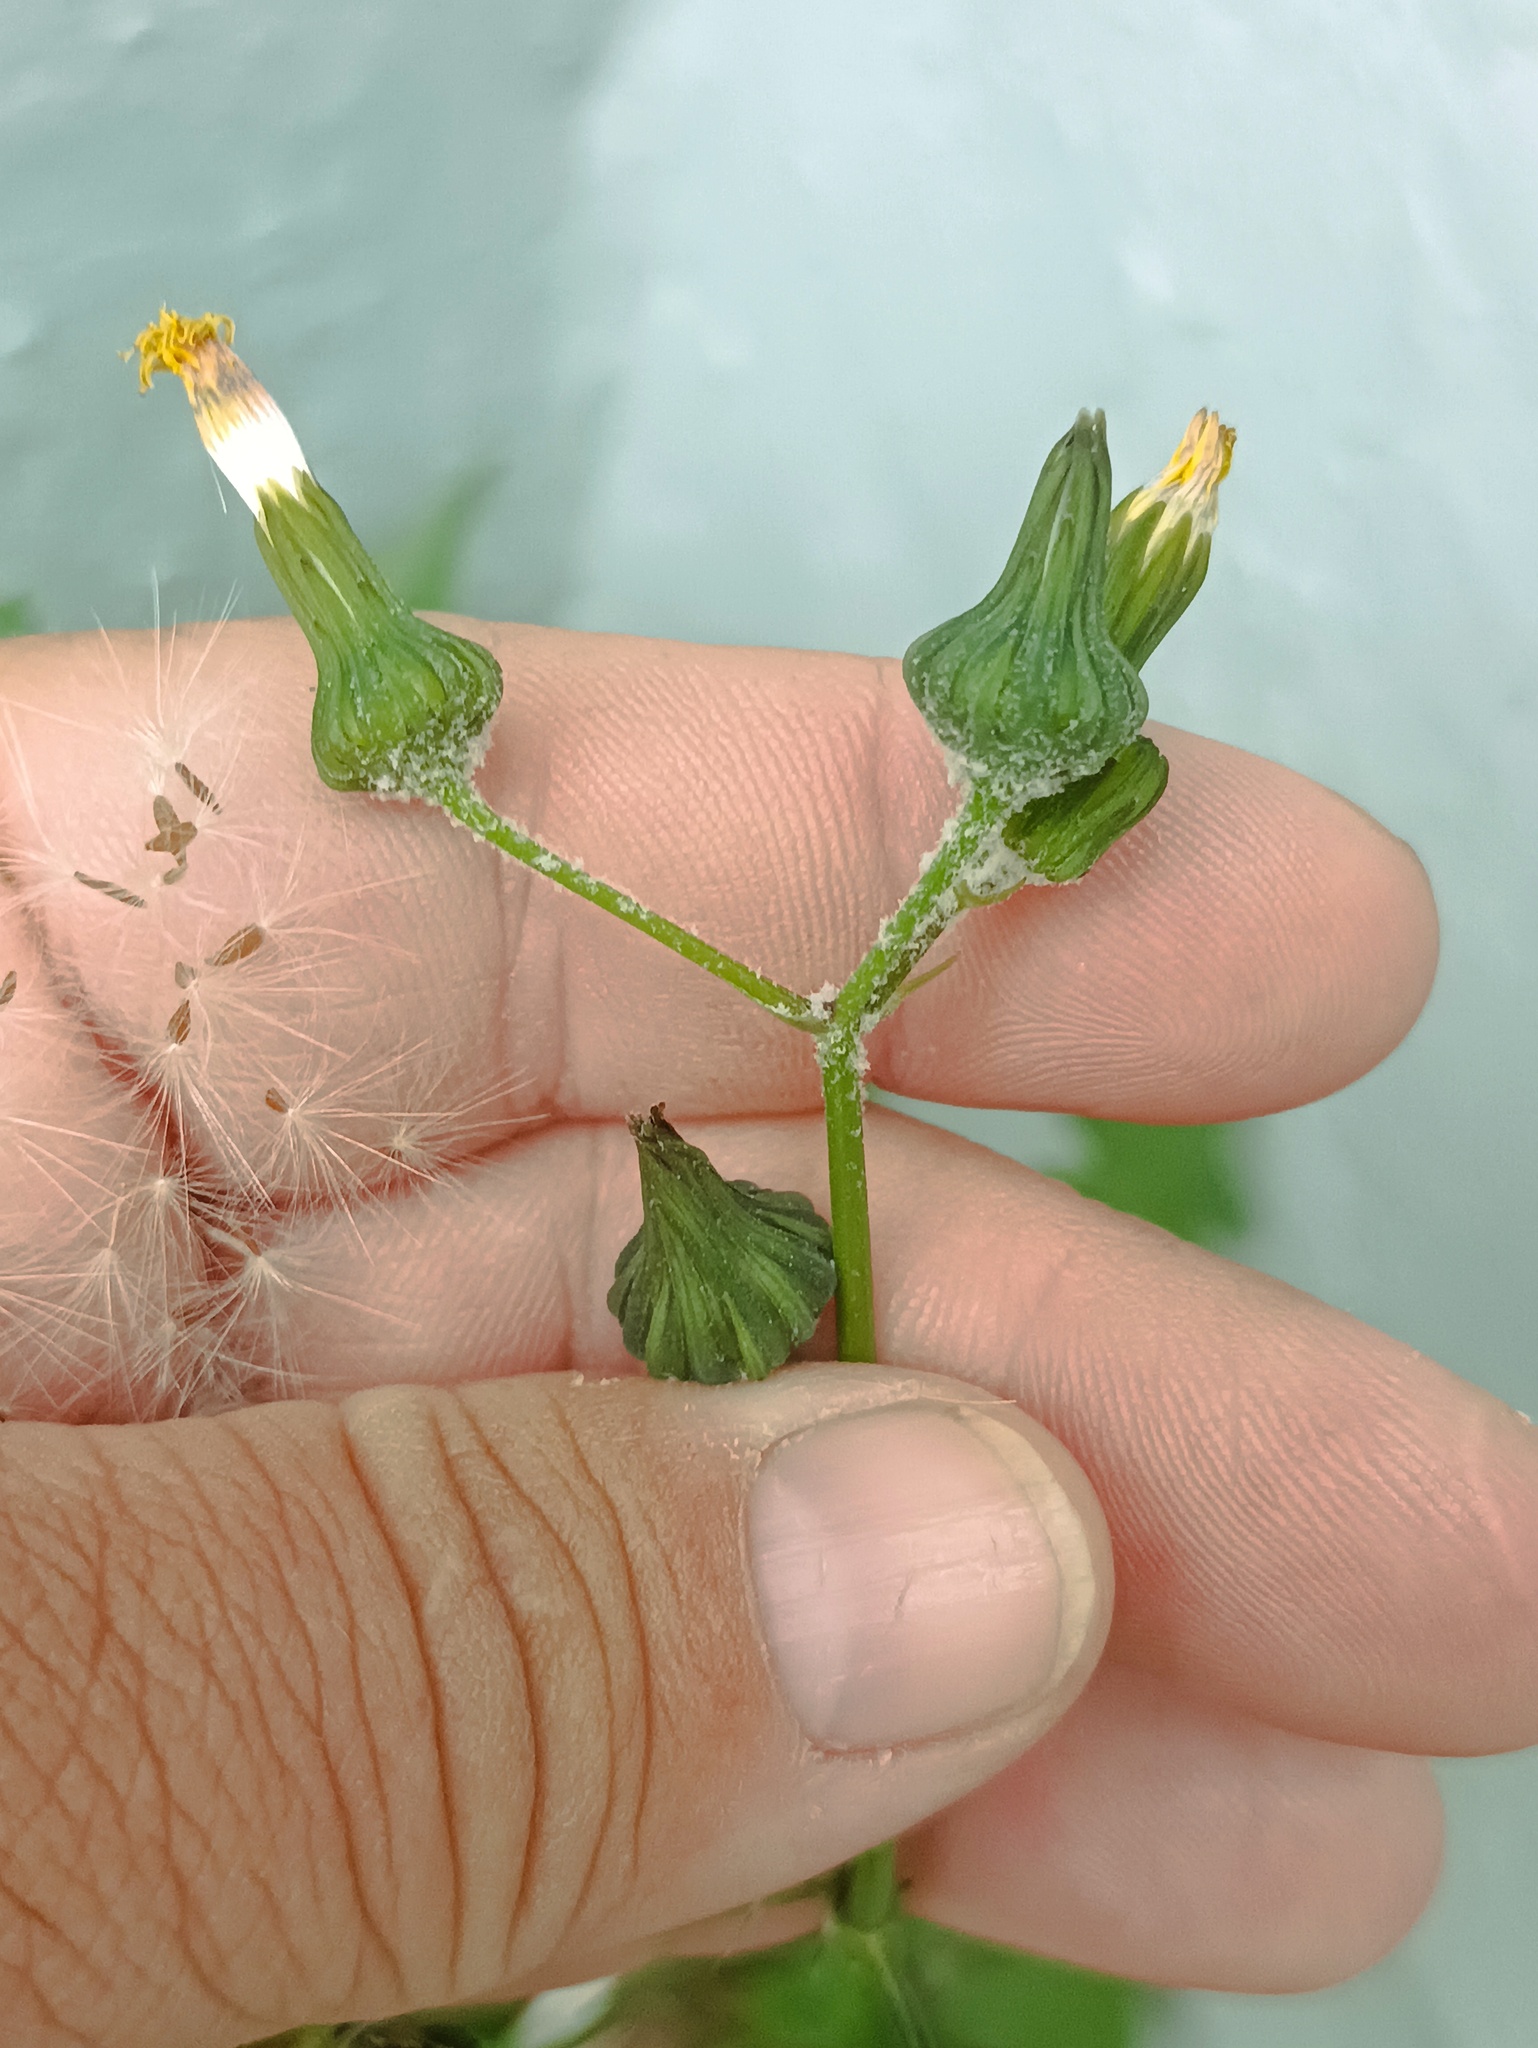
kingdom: Plantae
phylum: Tracheophyta
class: Magnoliopsida
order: Asterales
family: Asteraceae
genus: Sonchus
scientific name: Sonchus oleraceus
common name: Common sowthistle
